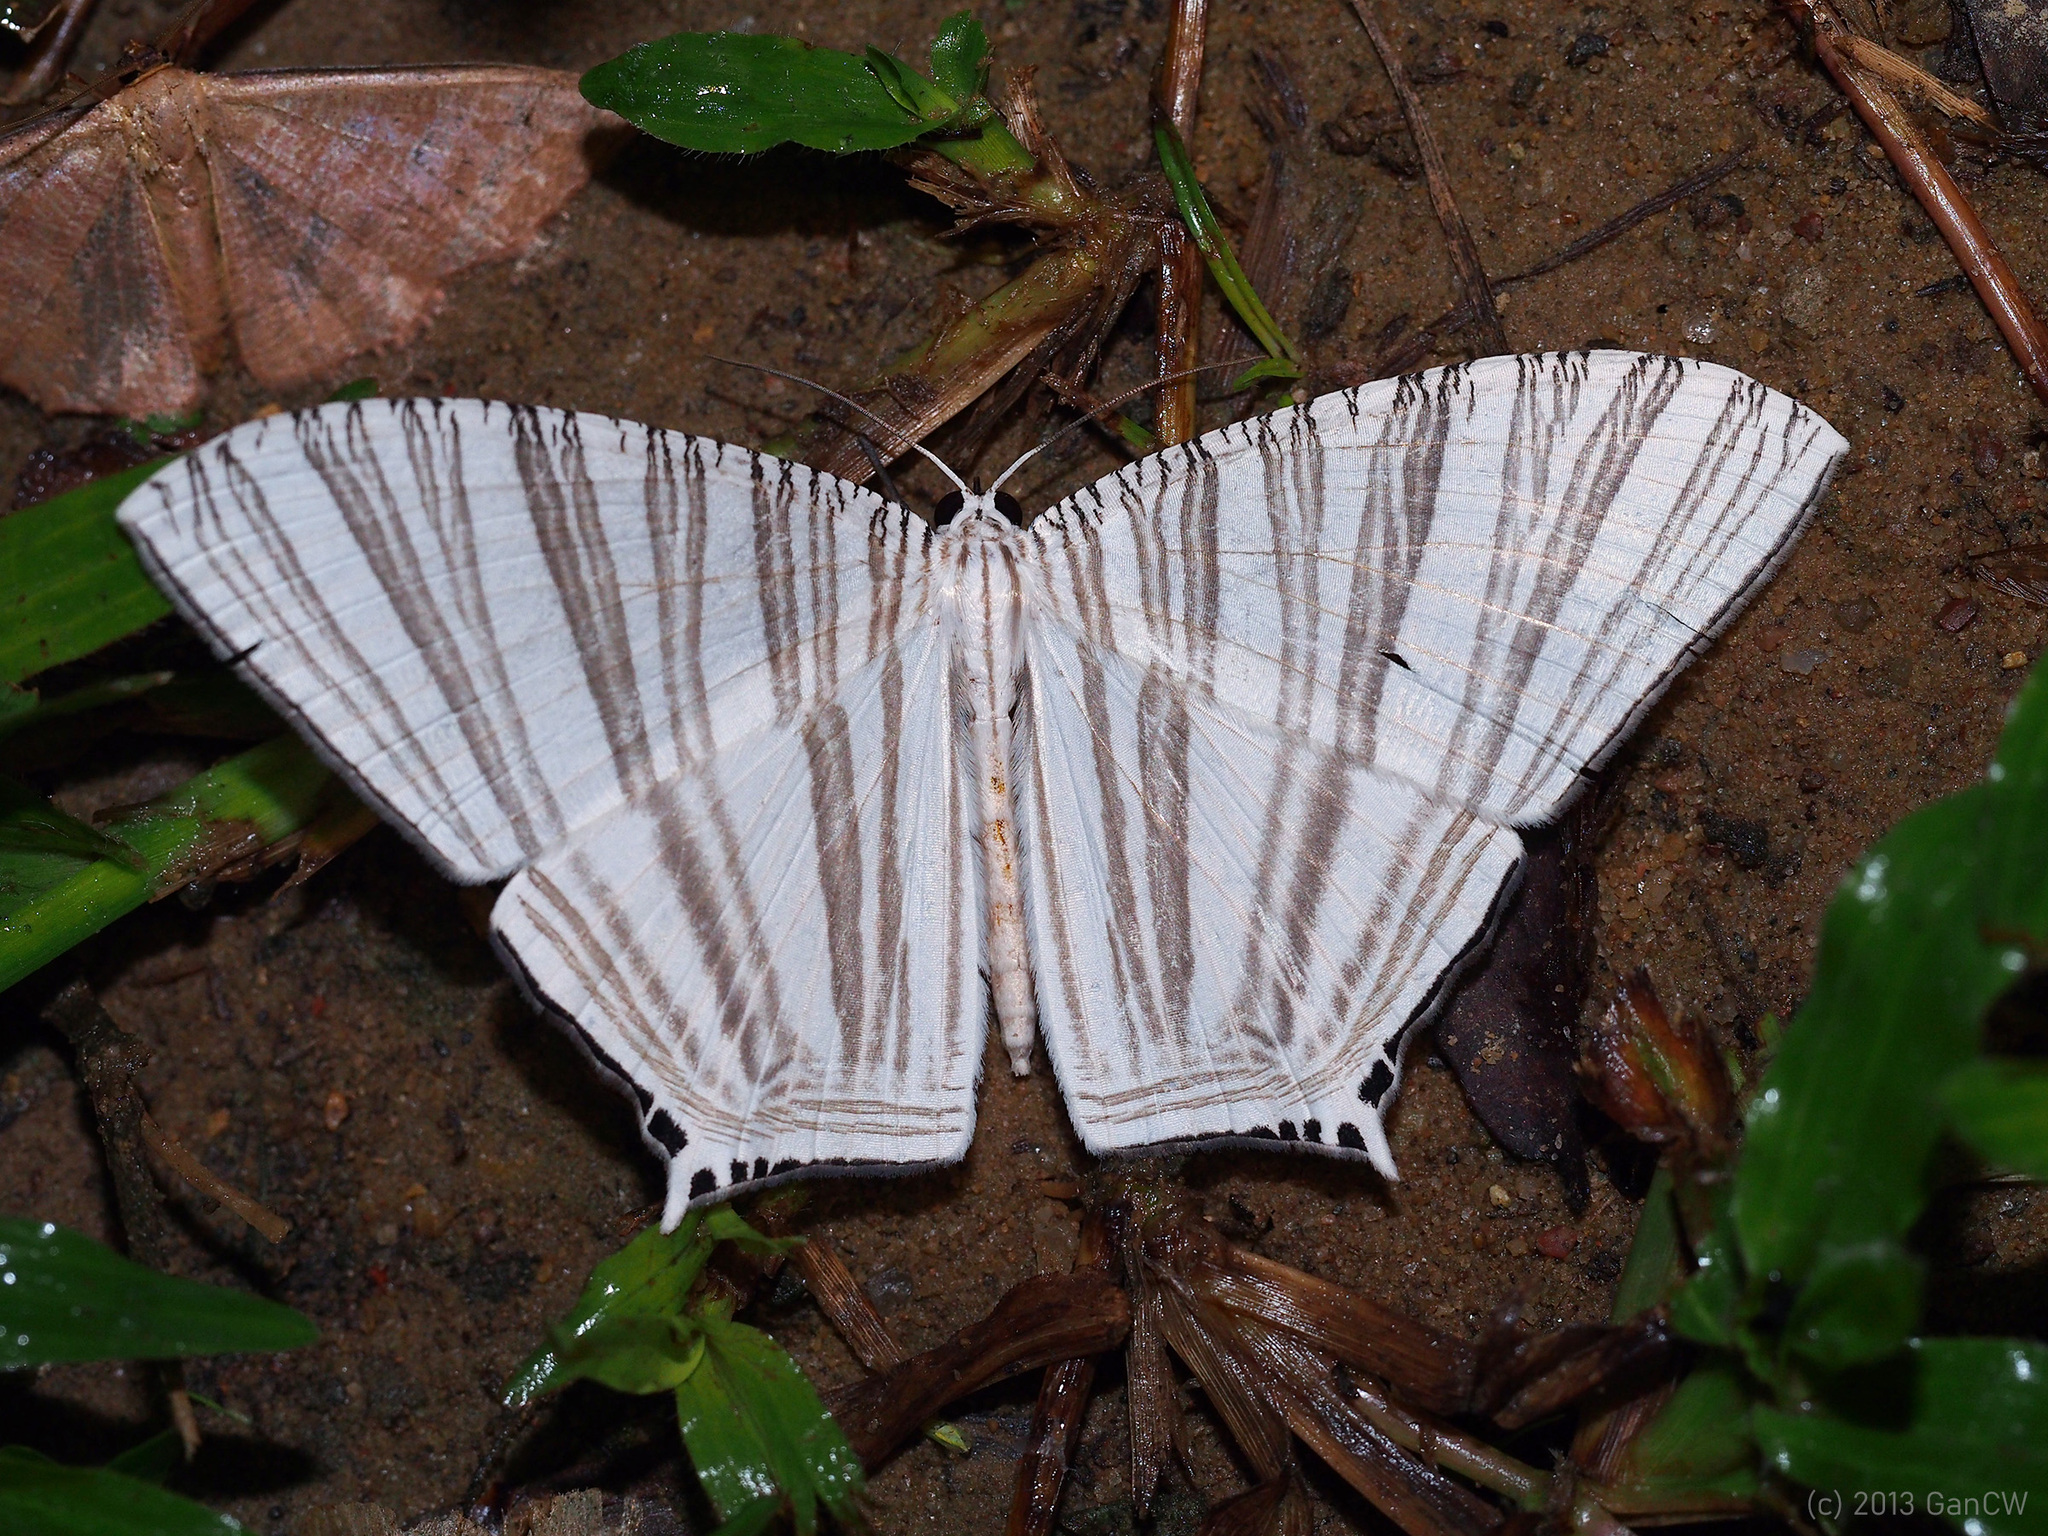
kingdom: Animalia
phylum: Arthropoda
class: Insecta
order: Lepidoptera
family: Uraniidae
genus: Strophidia
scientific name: Strophidia caudata
